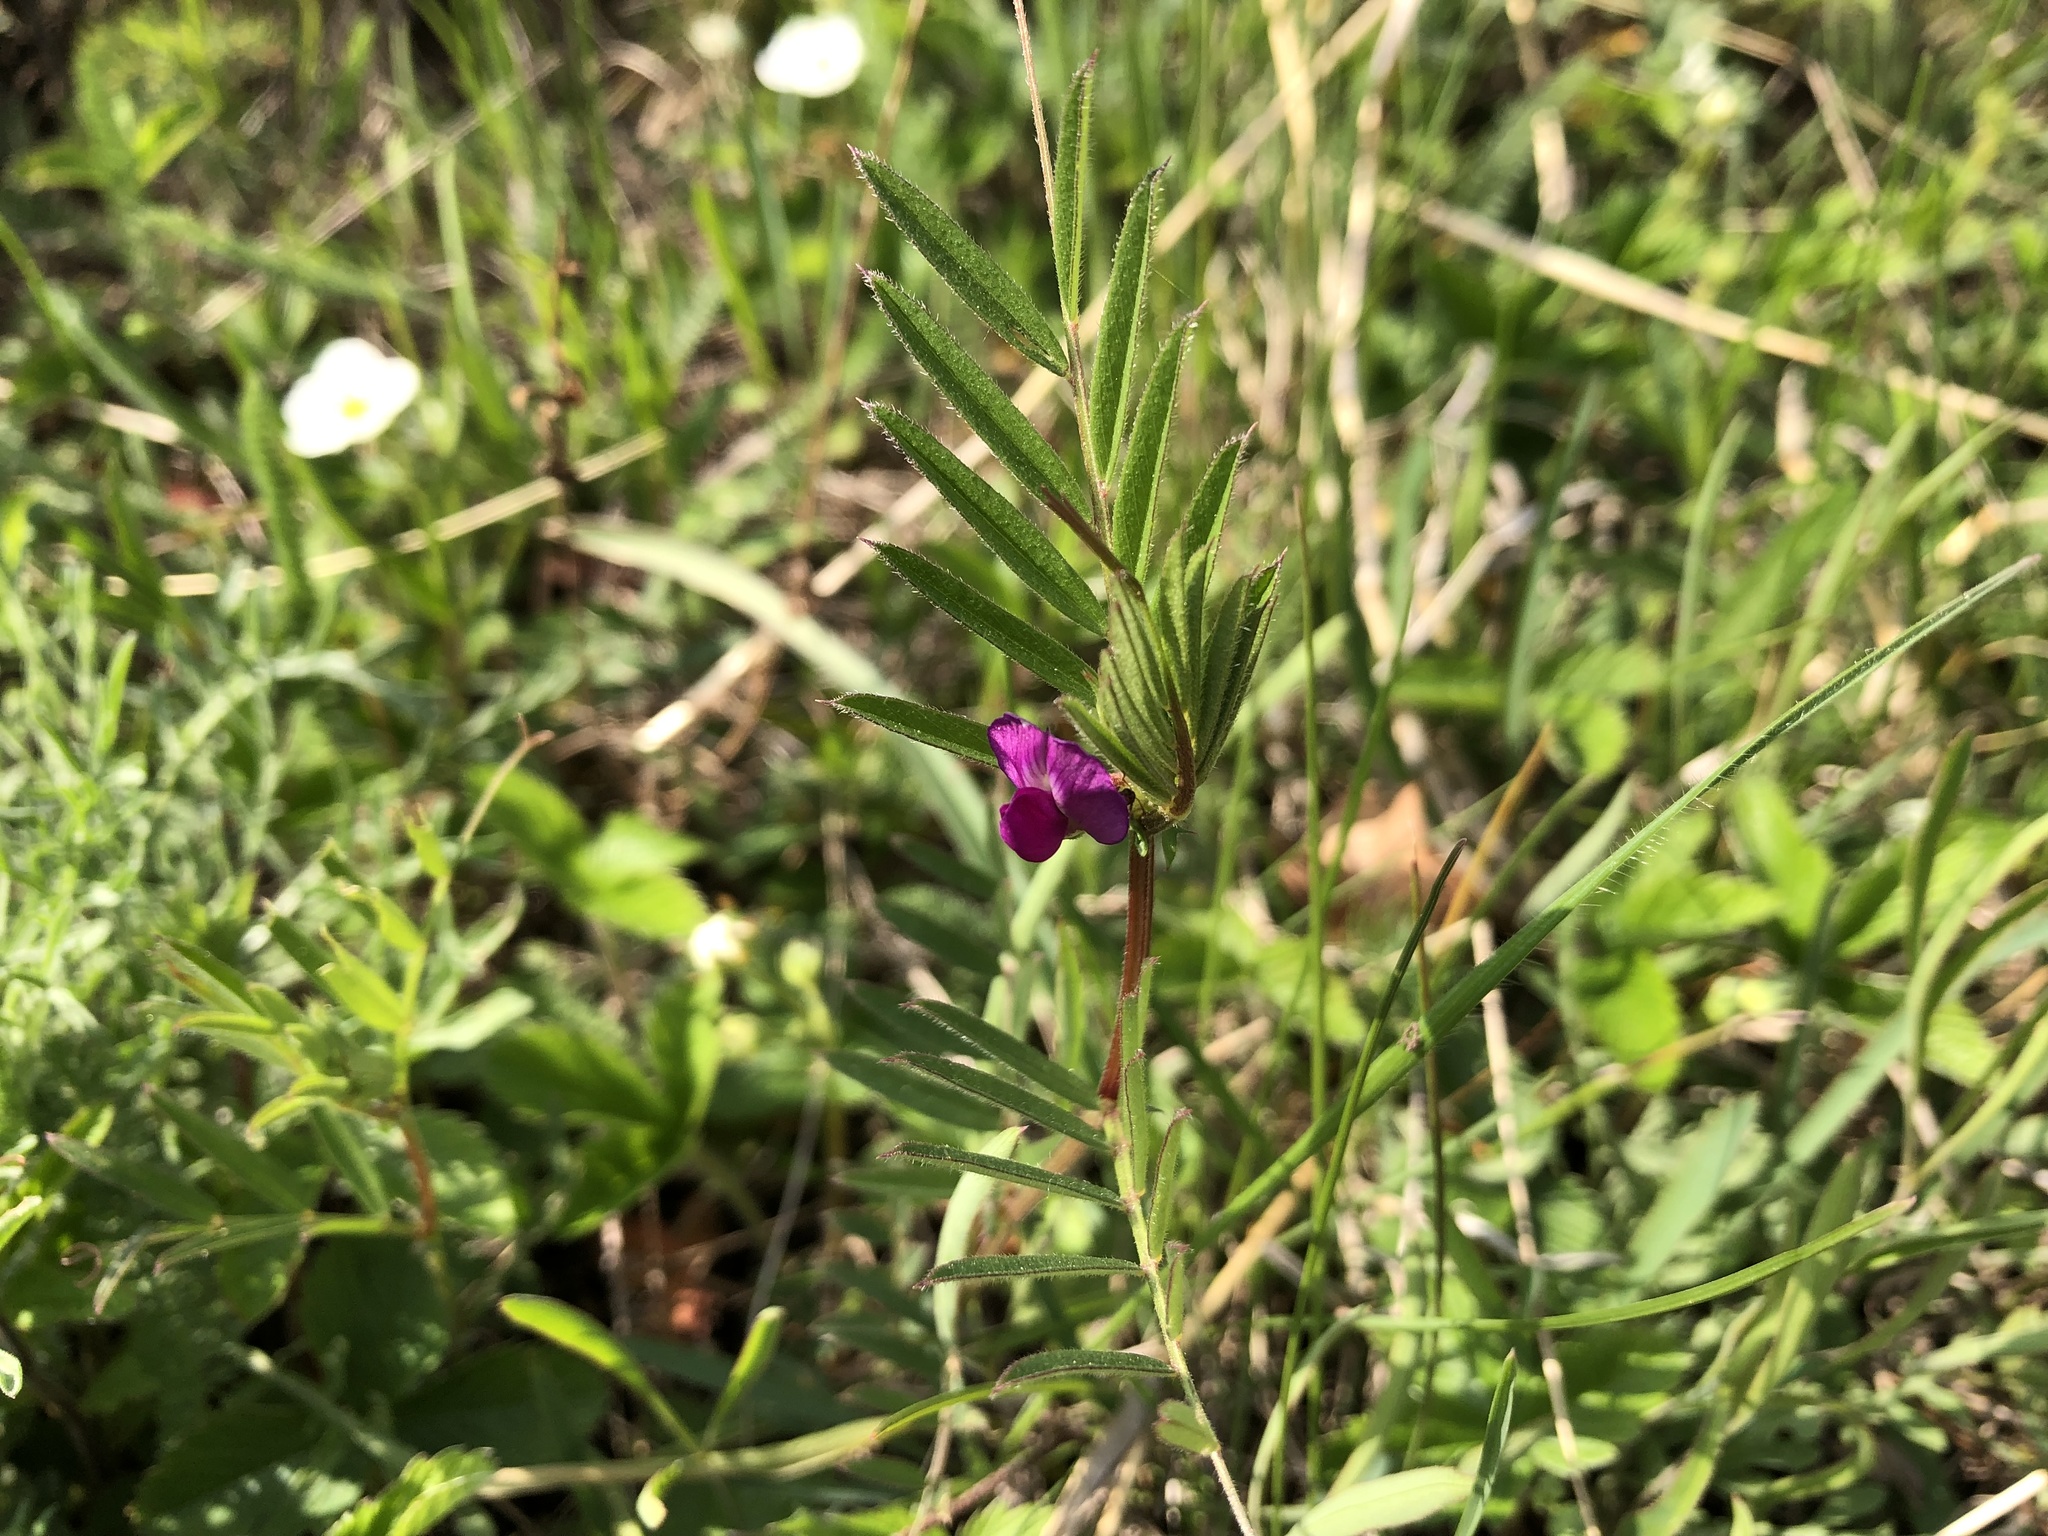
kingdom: Plantae
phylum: Tracheophyta
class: Magnoliopsida
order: Fabales
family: Fabaceae
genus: Vicia
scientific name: Vicia sativa
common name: Garden vetch
